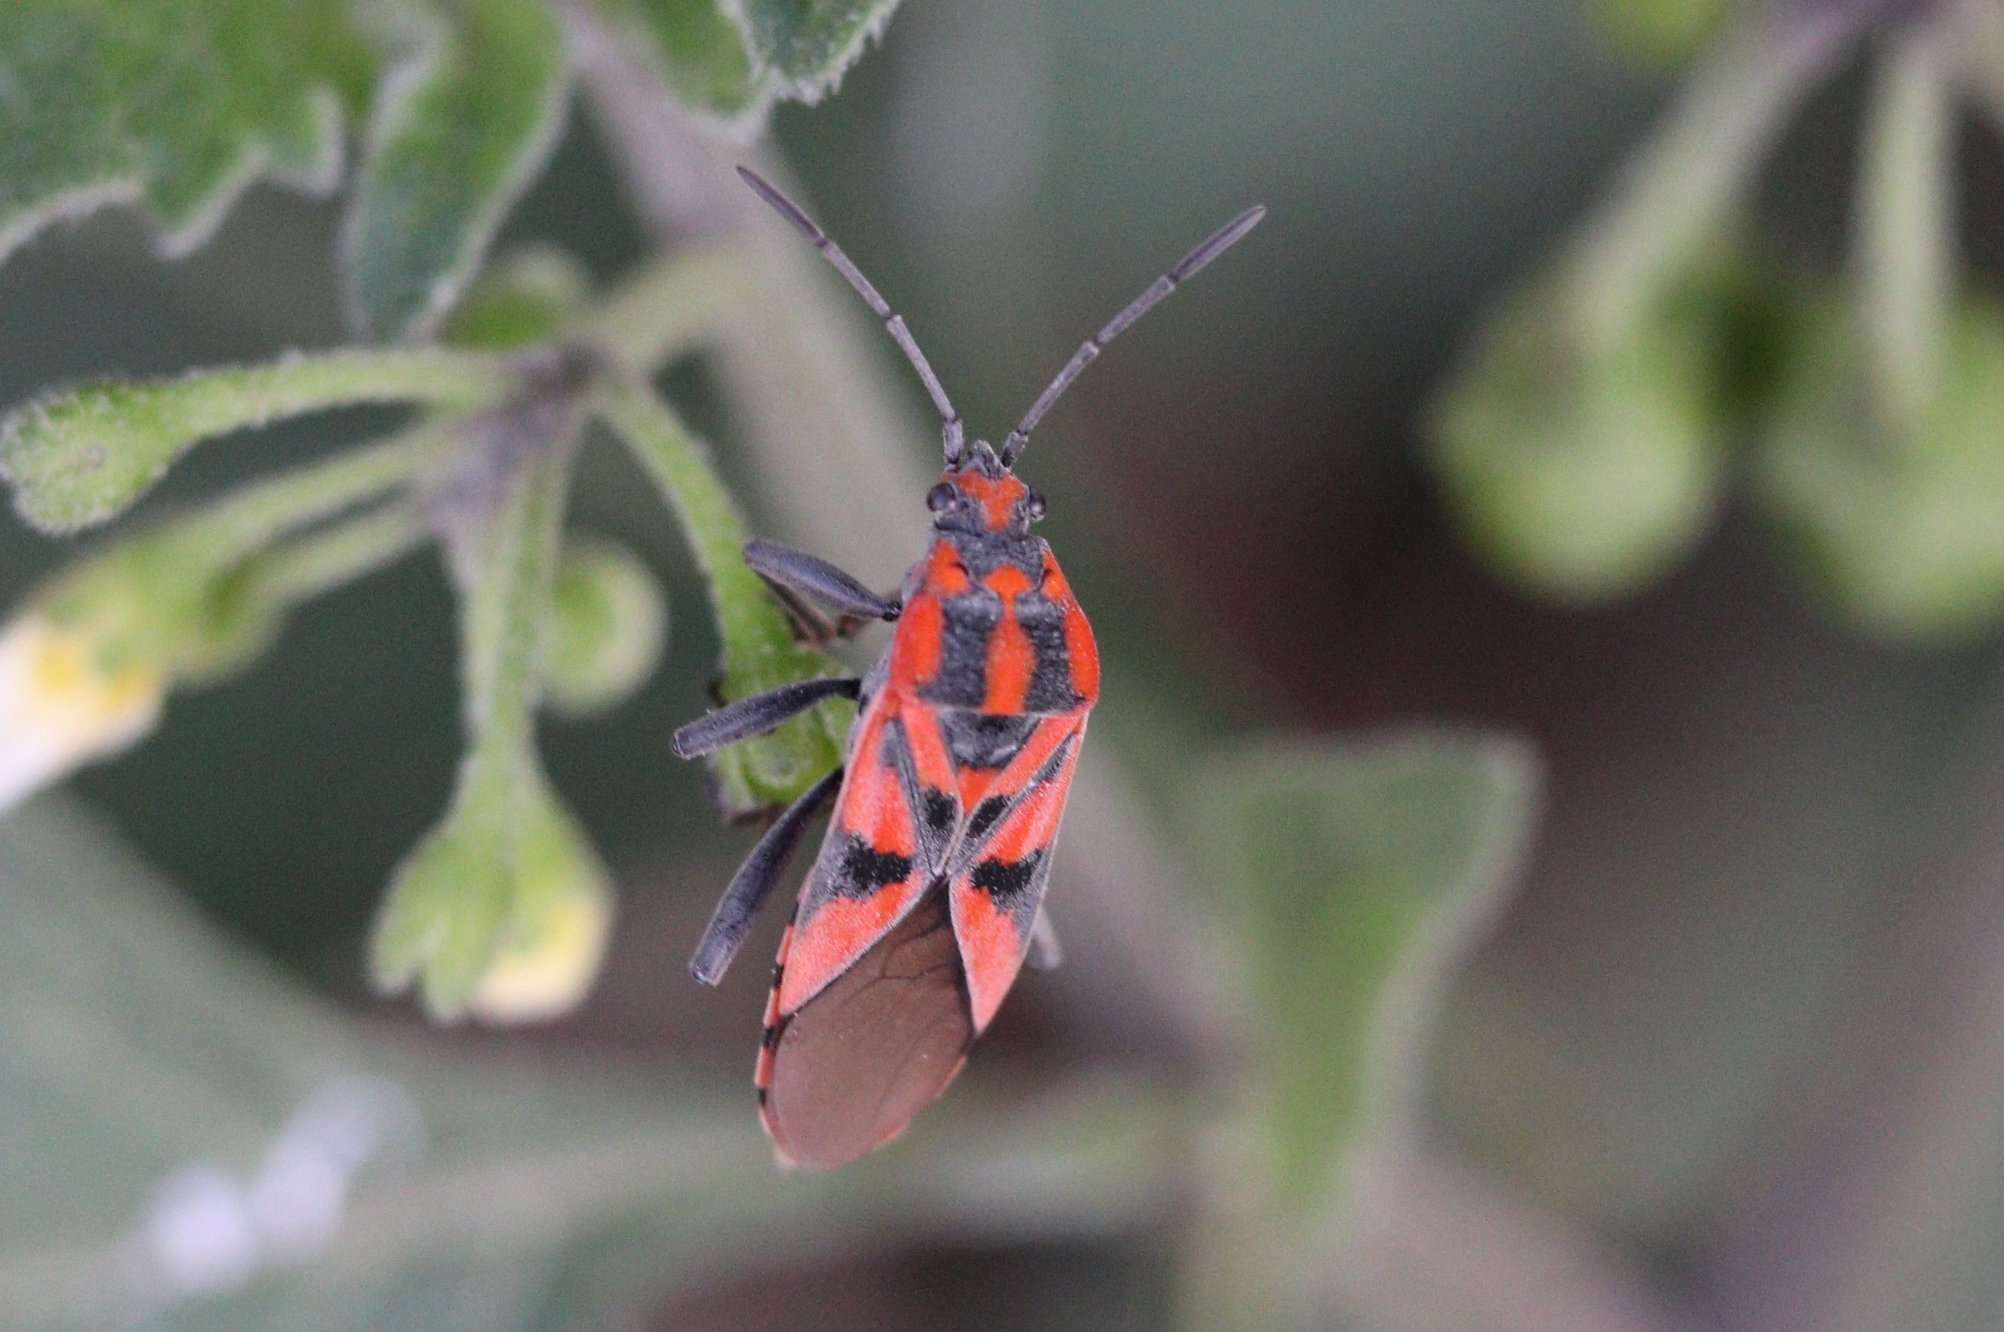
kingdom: Animalia
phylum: Arthropoda
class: Insecta
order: Hemiptera
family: Lygaeidae
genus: Spilostethus
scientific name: Spilostethus furcula
